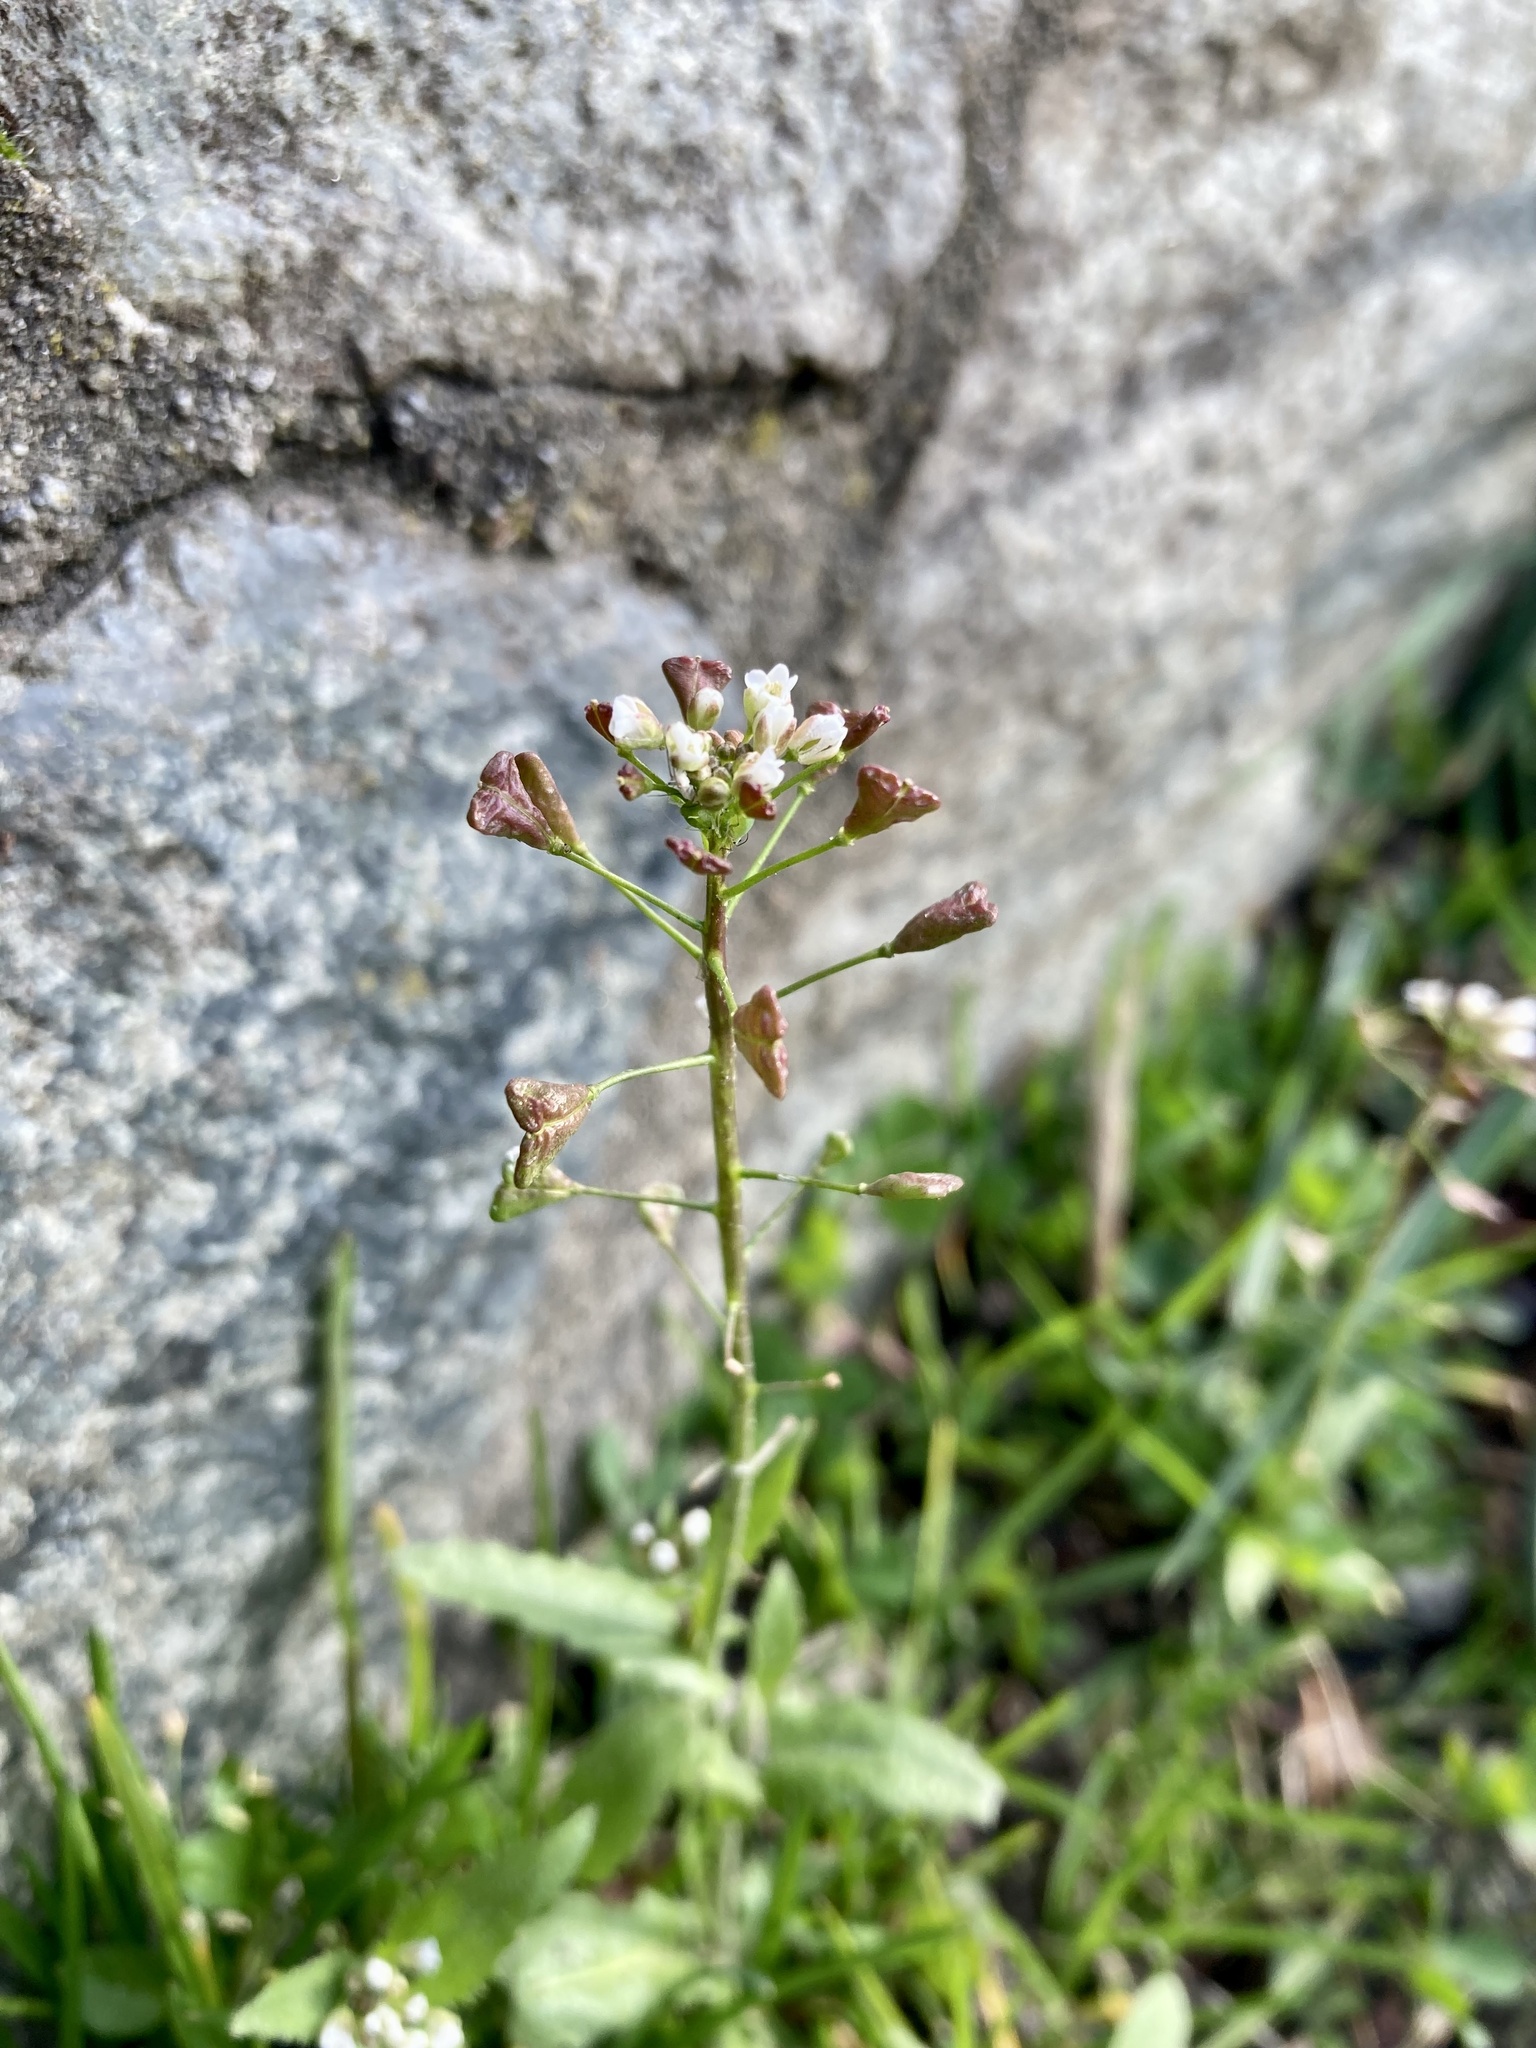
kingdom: Plantae
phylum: Tracheophyta
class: Magnoliopsida
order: Brassicales
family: Brassicaceae
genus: Capsella
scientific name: Capsella bursa-pastoris
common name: Shepherd's purse
